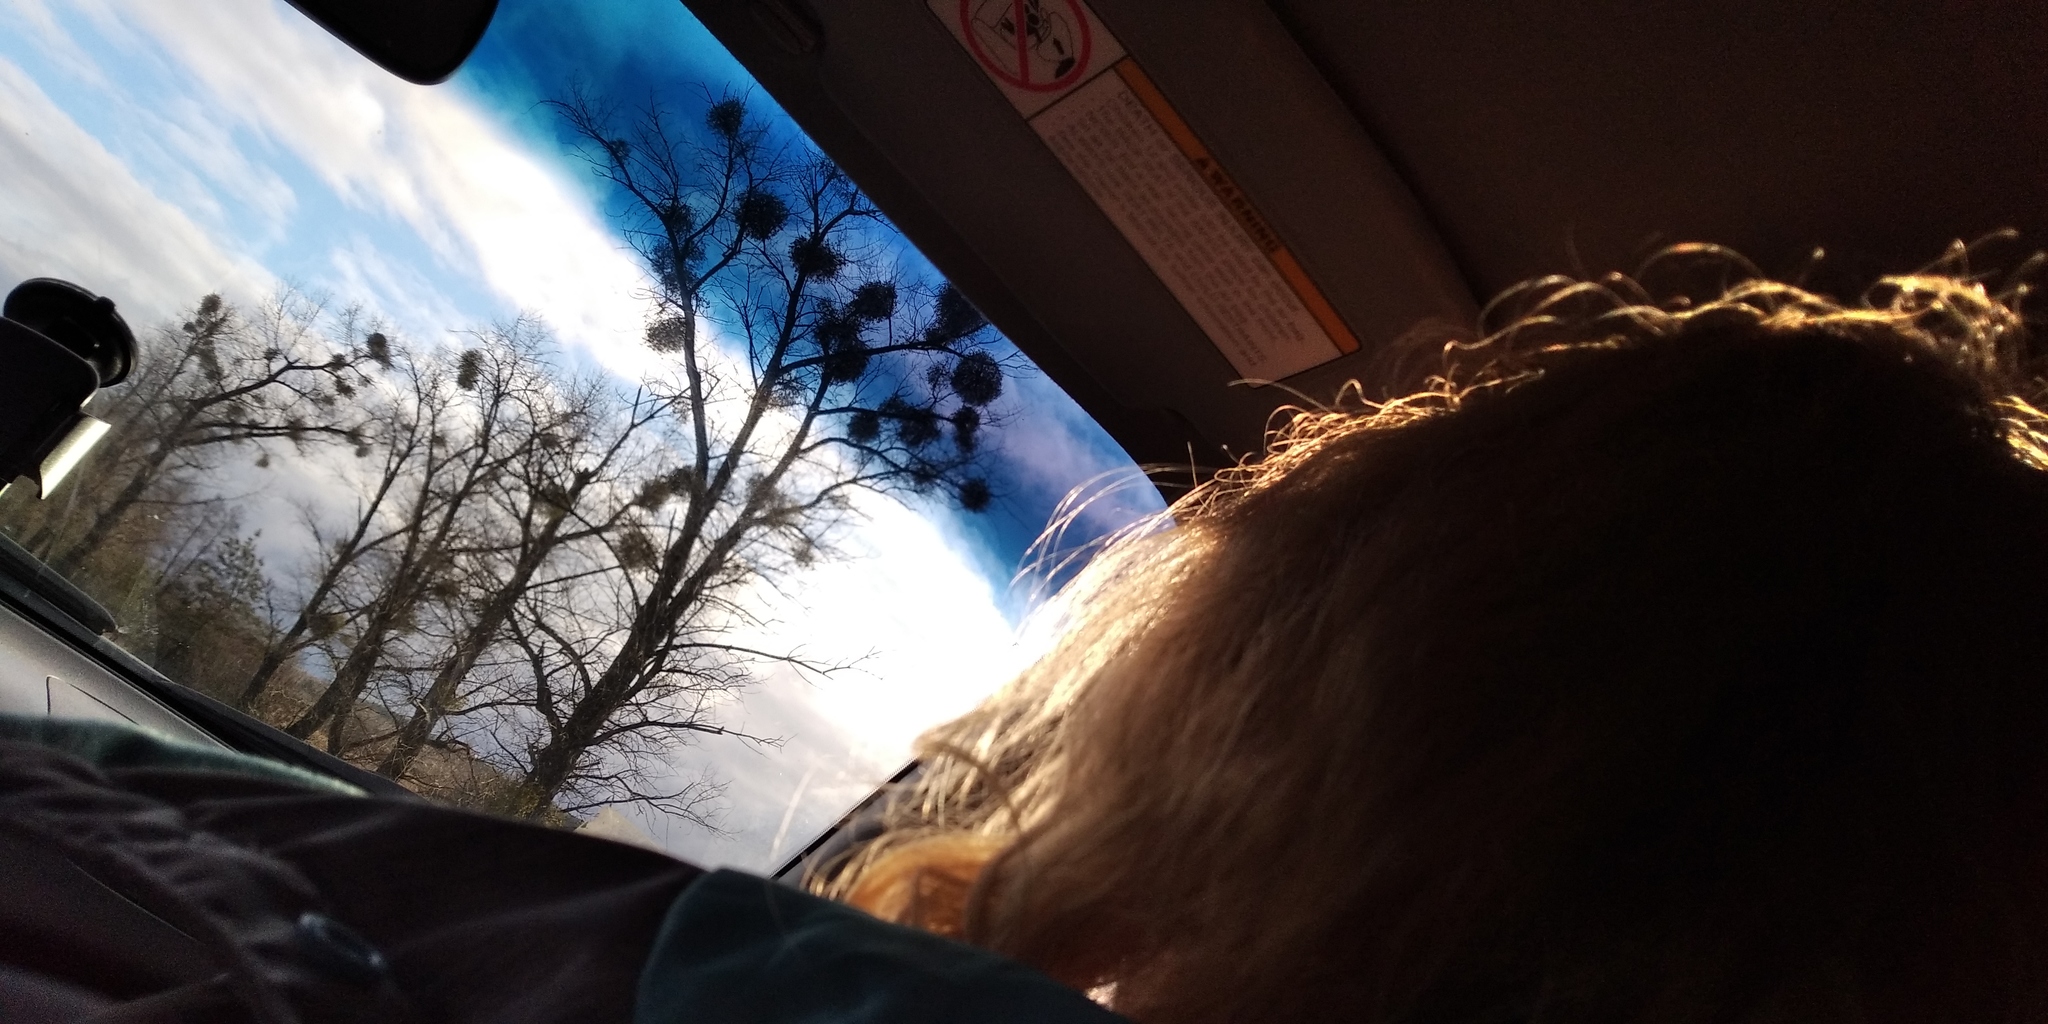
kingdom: Plantae
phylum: Tracheophyta
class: Magnoliopsida
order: Santalales
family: Viscaceae
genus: Viscum
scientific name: Viscum album
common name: Mistletoe
